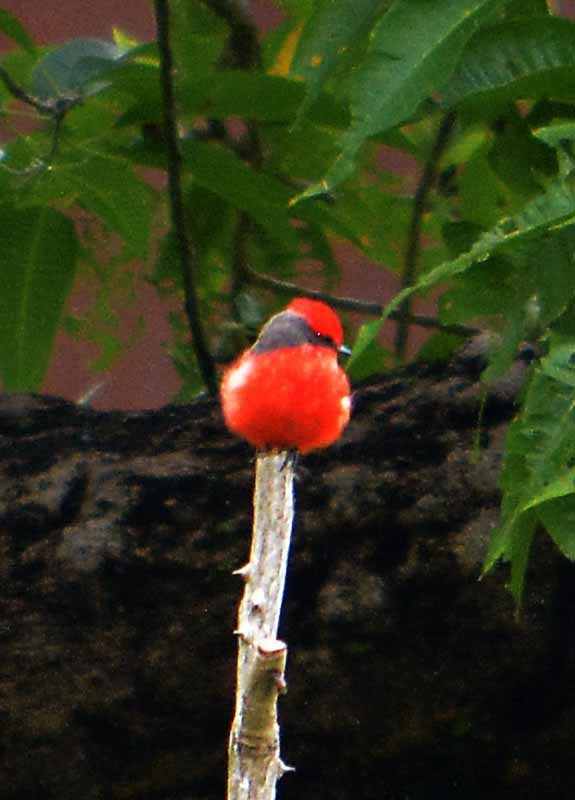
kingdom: Animalia
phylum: Chordata
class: Aves
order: Passeriformes
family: Tyrannidae
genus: Pyrocephalus
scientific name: Pyrocephalus rubinus
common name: Vermilion flycatcher
